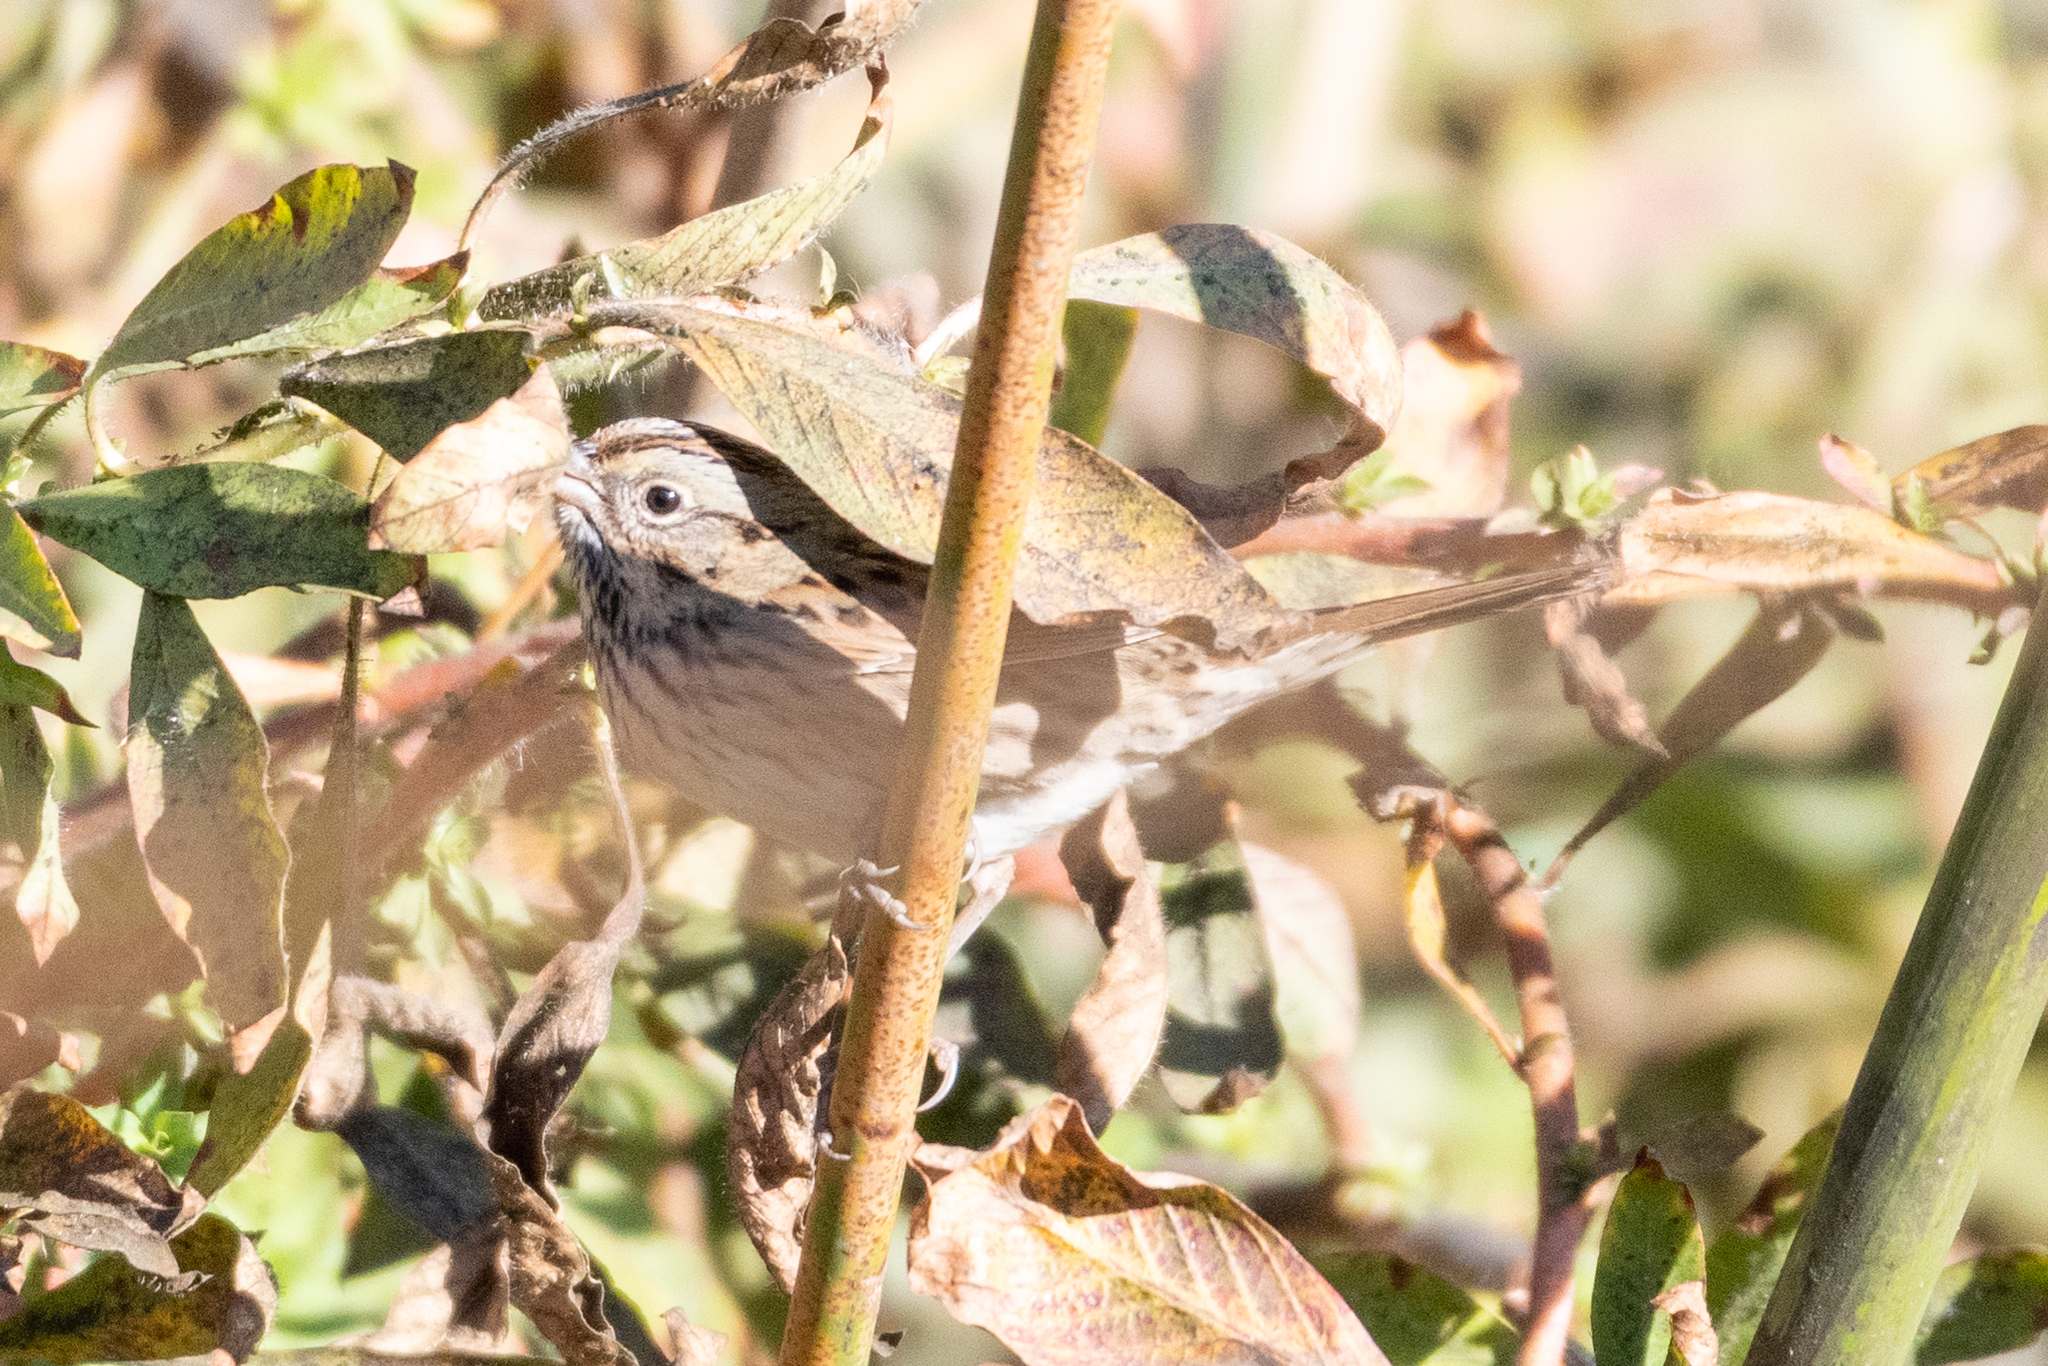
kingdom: Animalia
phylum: Chordata
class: Aves
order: Passeriformes
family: Passerellidae
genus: Melospiza
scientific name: Melospiza lincolnii
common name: Lincoln's sparrow
